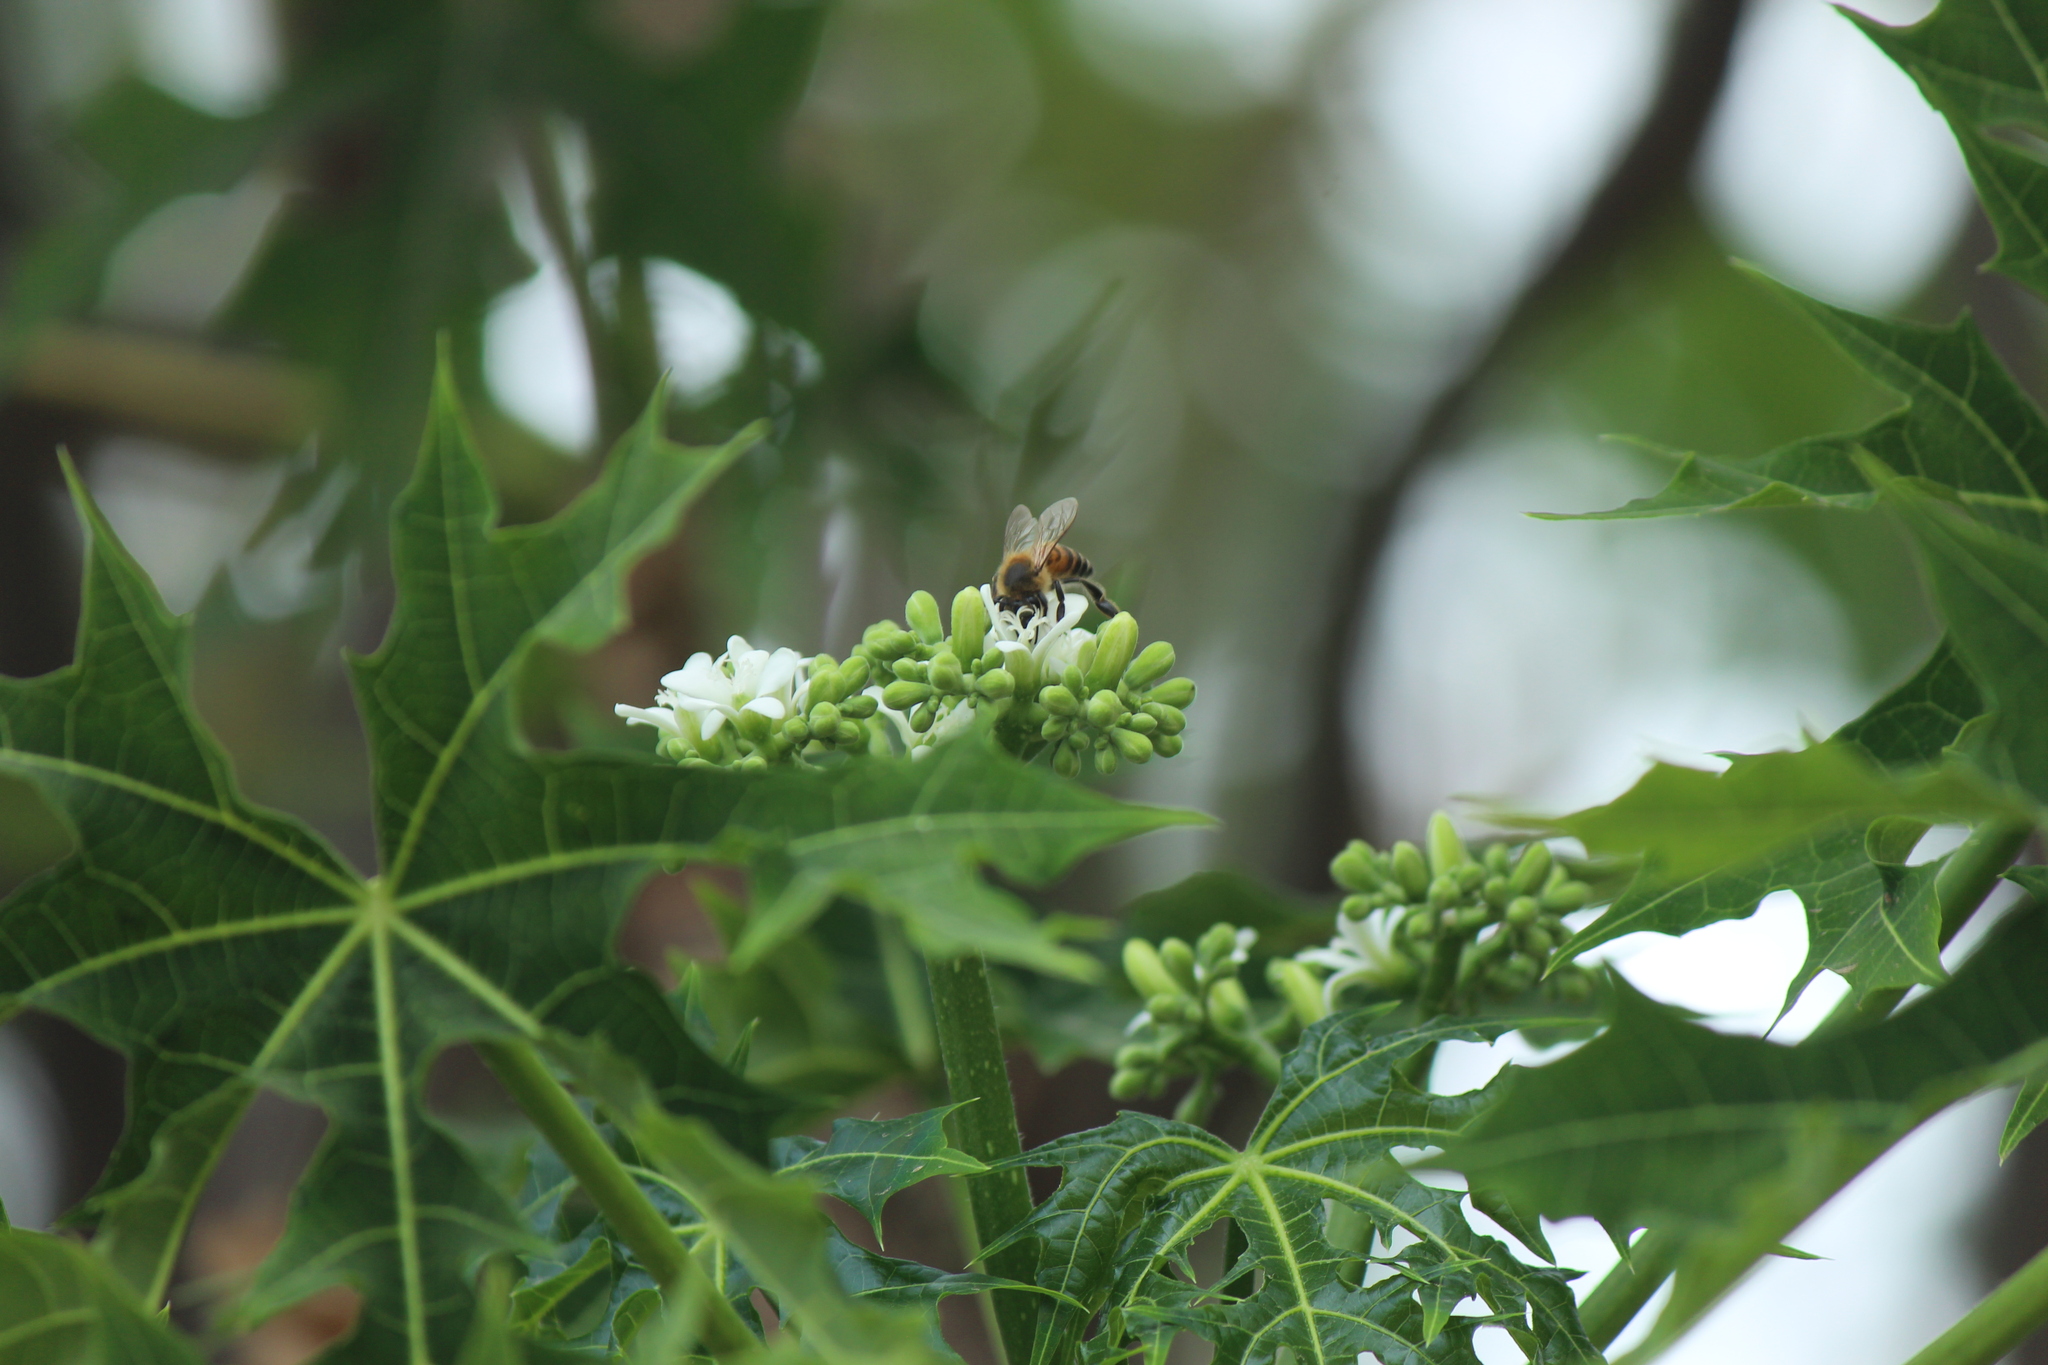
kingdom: Plantae
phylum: Tracheophyta
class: Magnoliopsida
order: Malpighiales
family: Euphorbiaceae
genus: Cnidoscolus
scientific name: Cnidoscolus aconitifolius
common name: Cabbage-star
